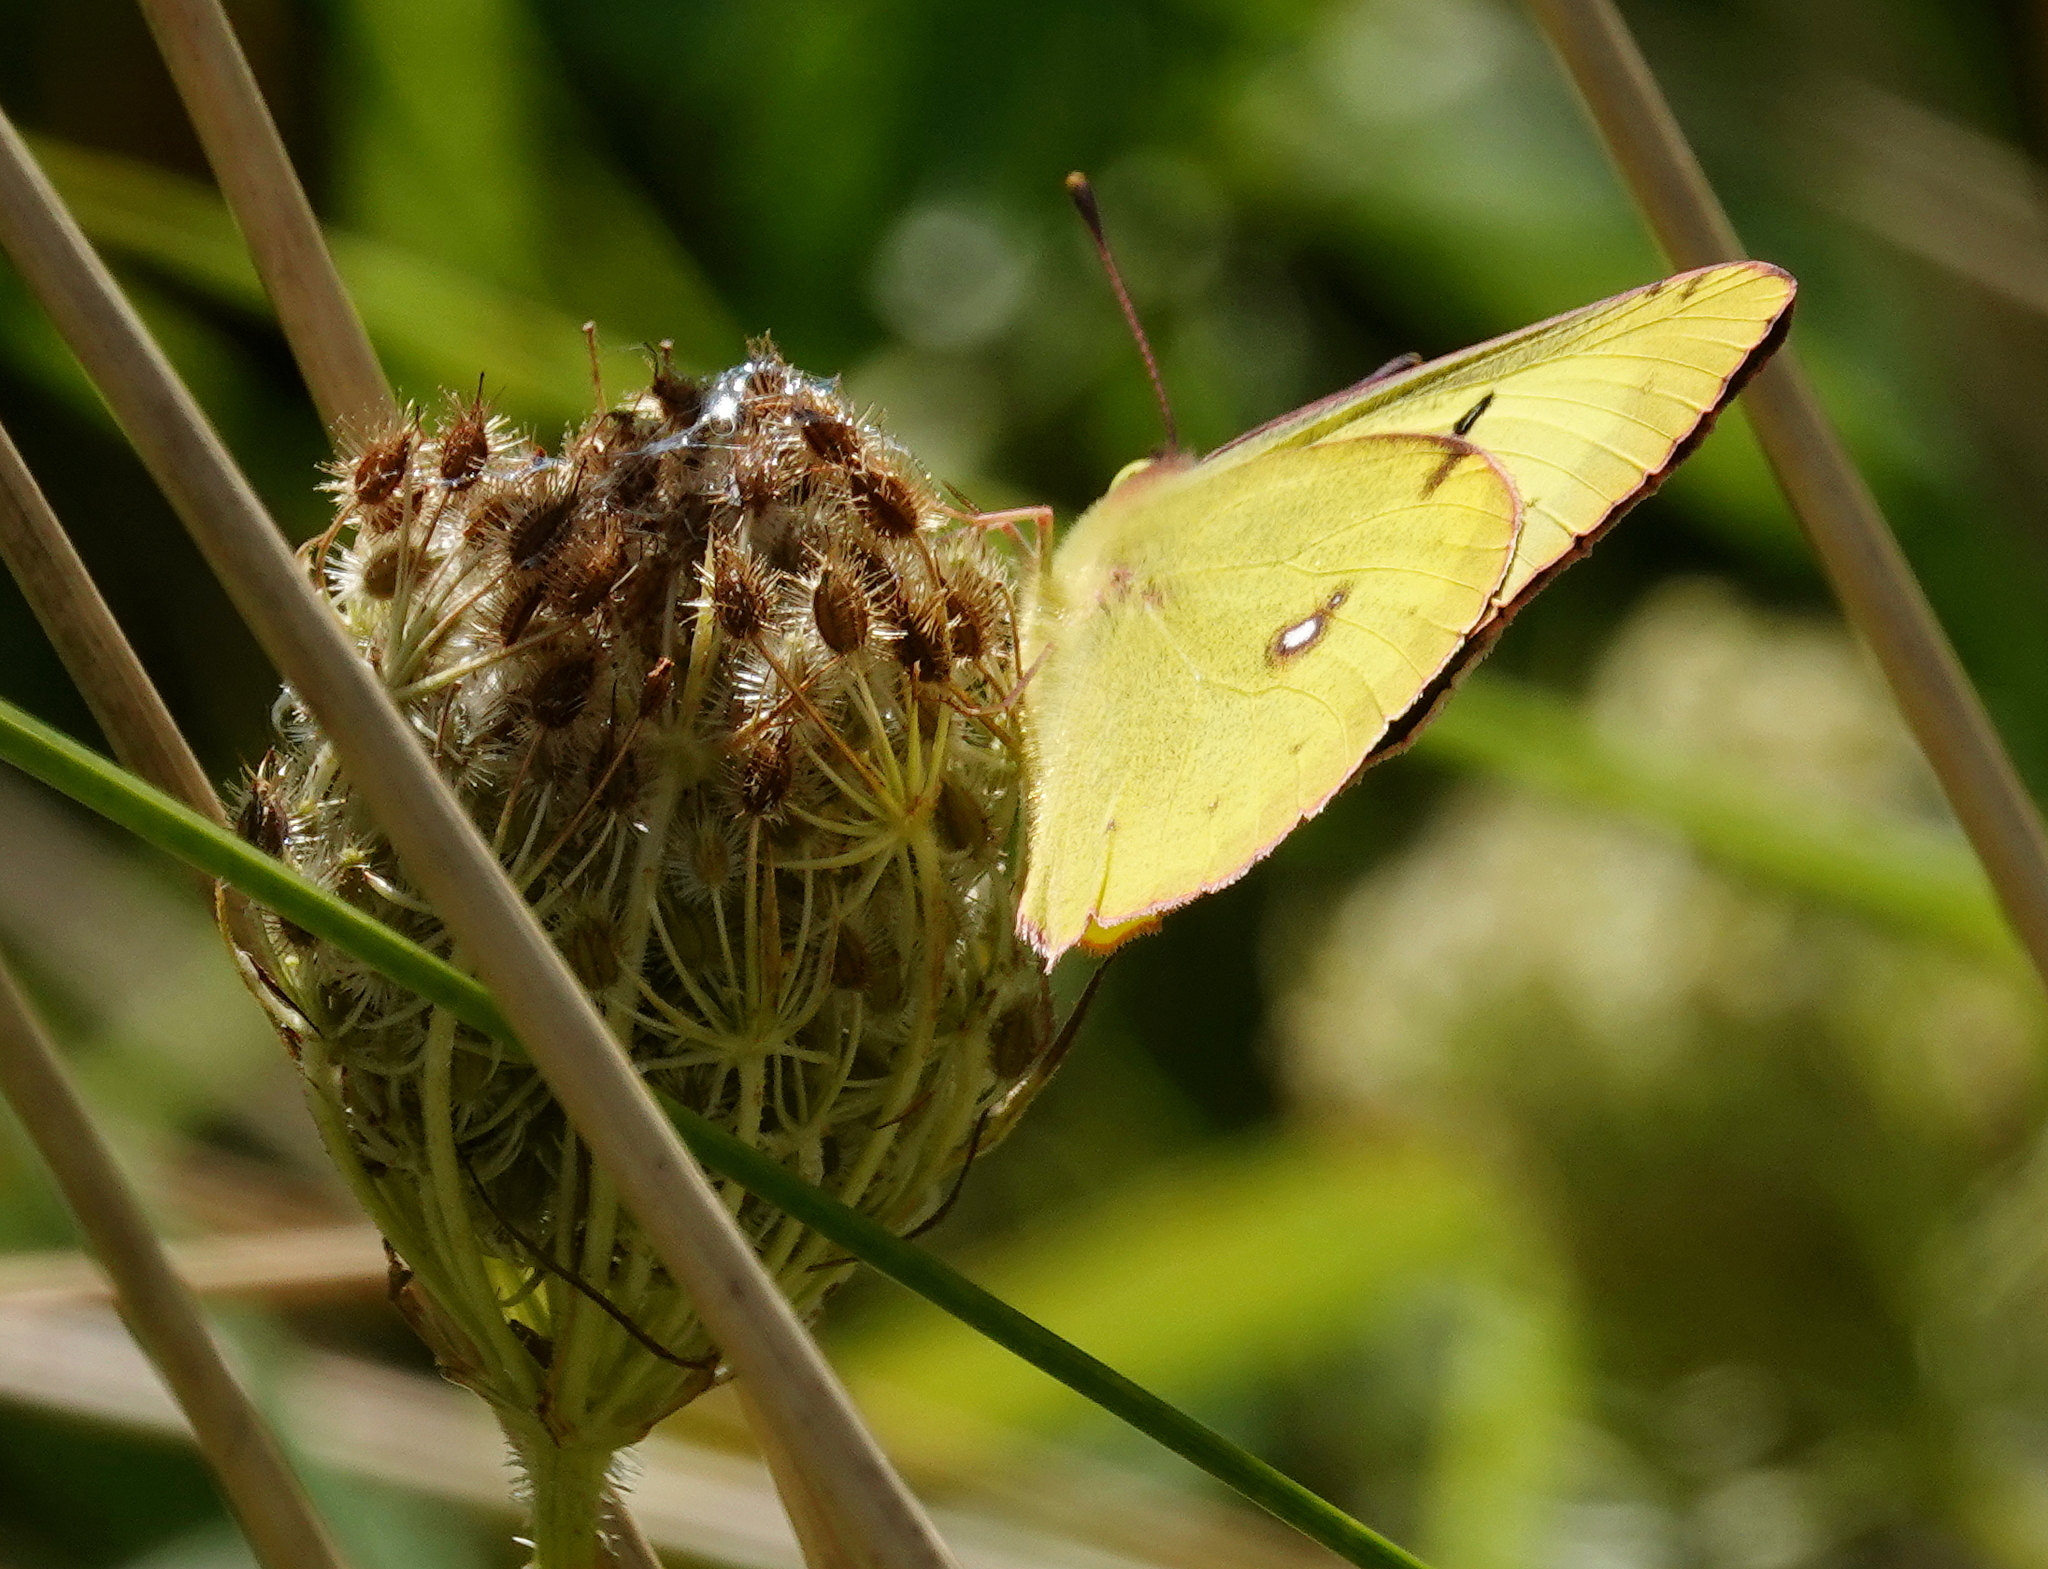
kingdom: Animalia
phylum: Arthropoda
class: Insecta
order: Lepidoptera
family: Pieridae
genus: Colias
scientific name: Colias philodice
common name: Clouded sulphur
